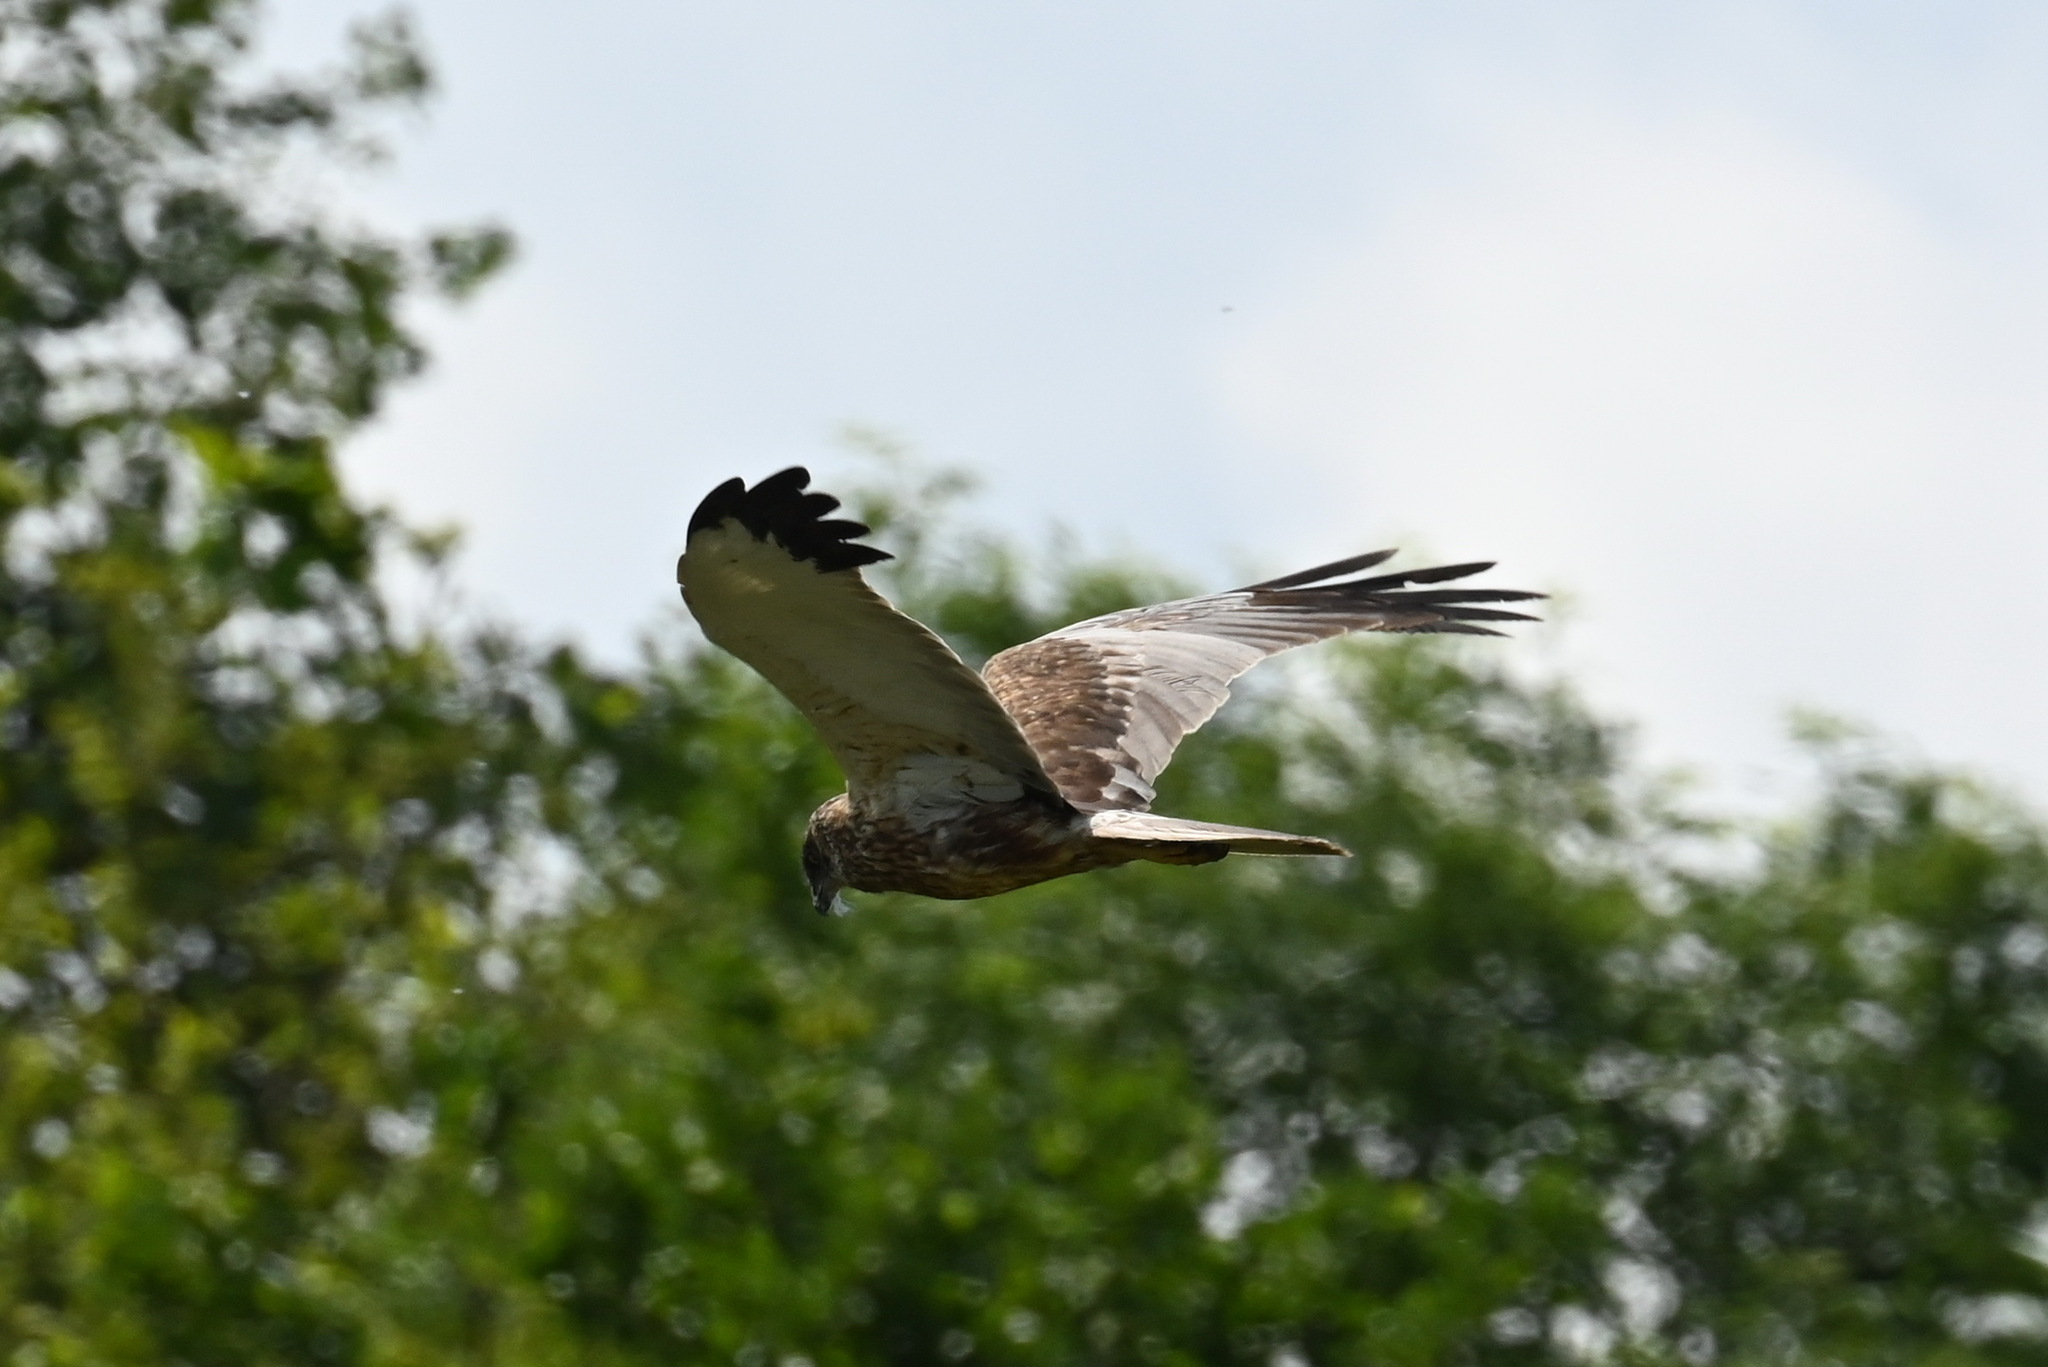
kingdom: Animalia
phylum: Chordata
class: Aves
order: Accipitriformes
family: Accipitridae
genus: Circus
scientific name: Circus aeruginosus
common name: Western marsh harrier
